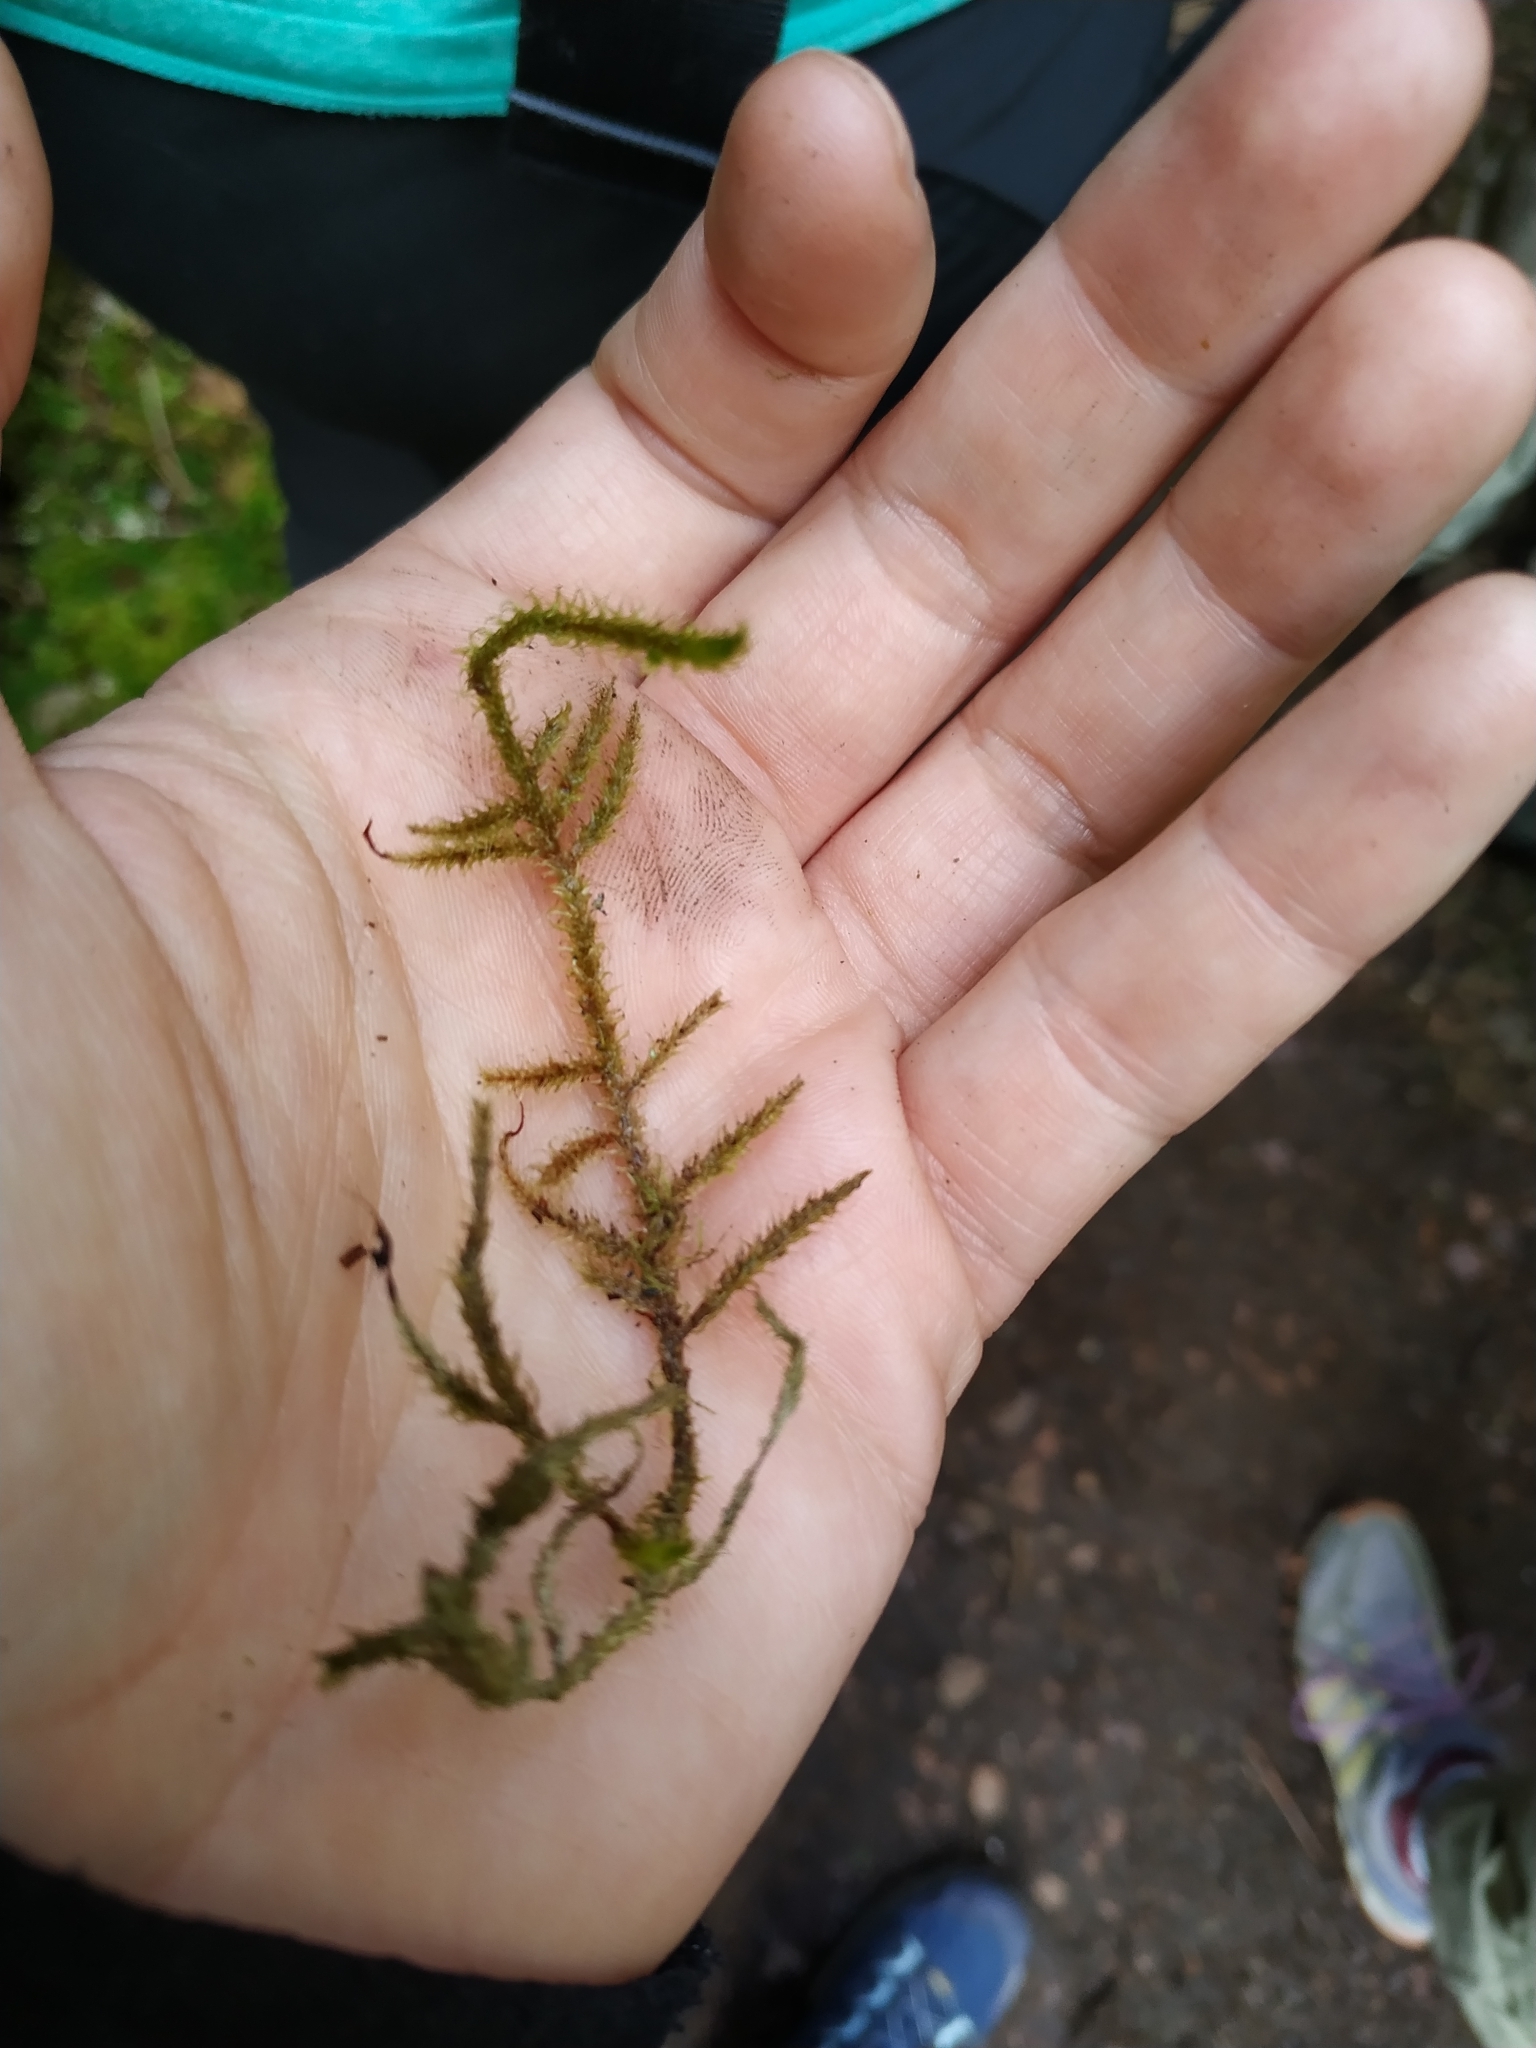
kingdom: Plantae
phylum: Bryophyta
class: Bryopsida
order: Hypnales
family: Hylocomiaceae
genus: Rhytidiadelphus
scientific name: Rhytidiadelphus loreus
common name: Lanky moss
